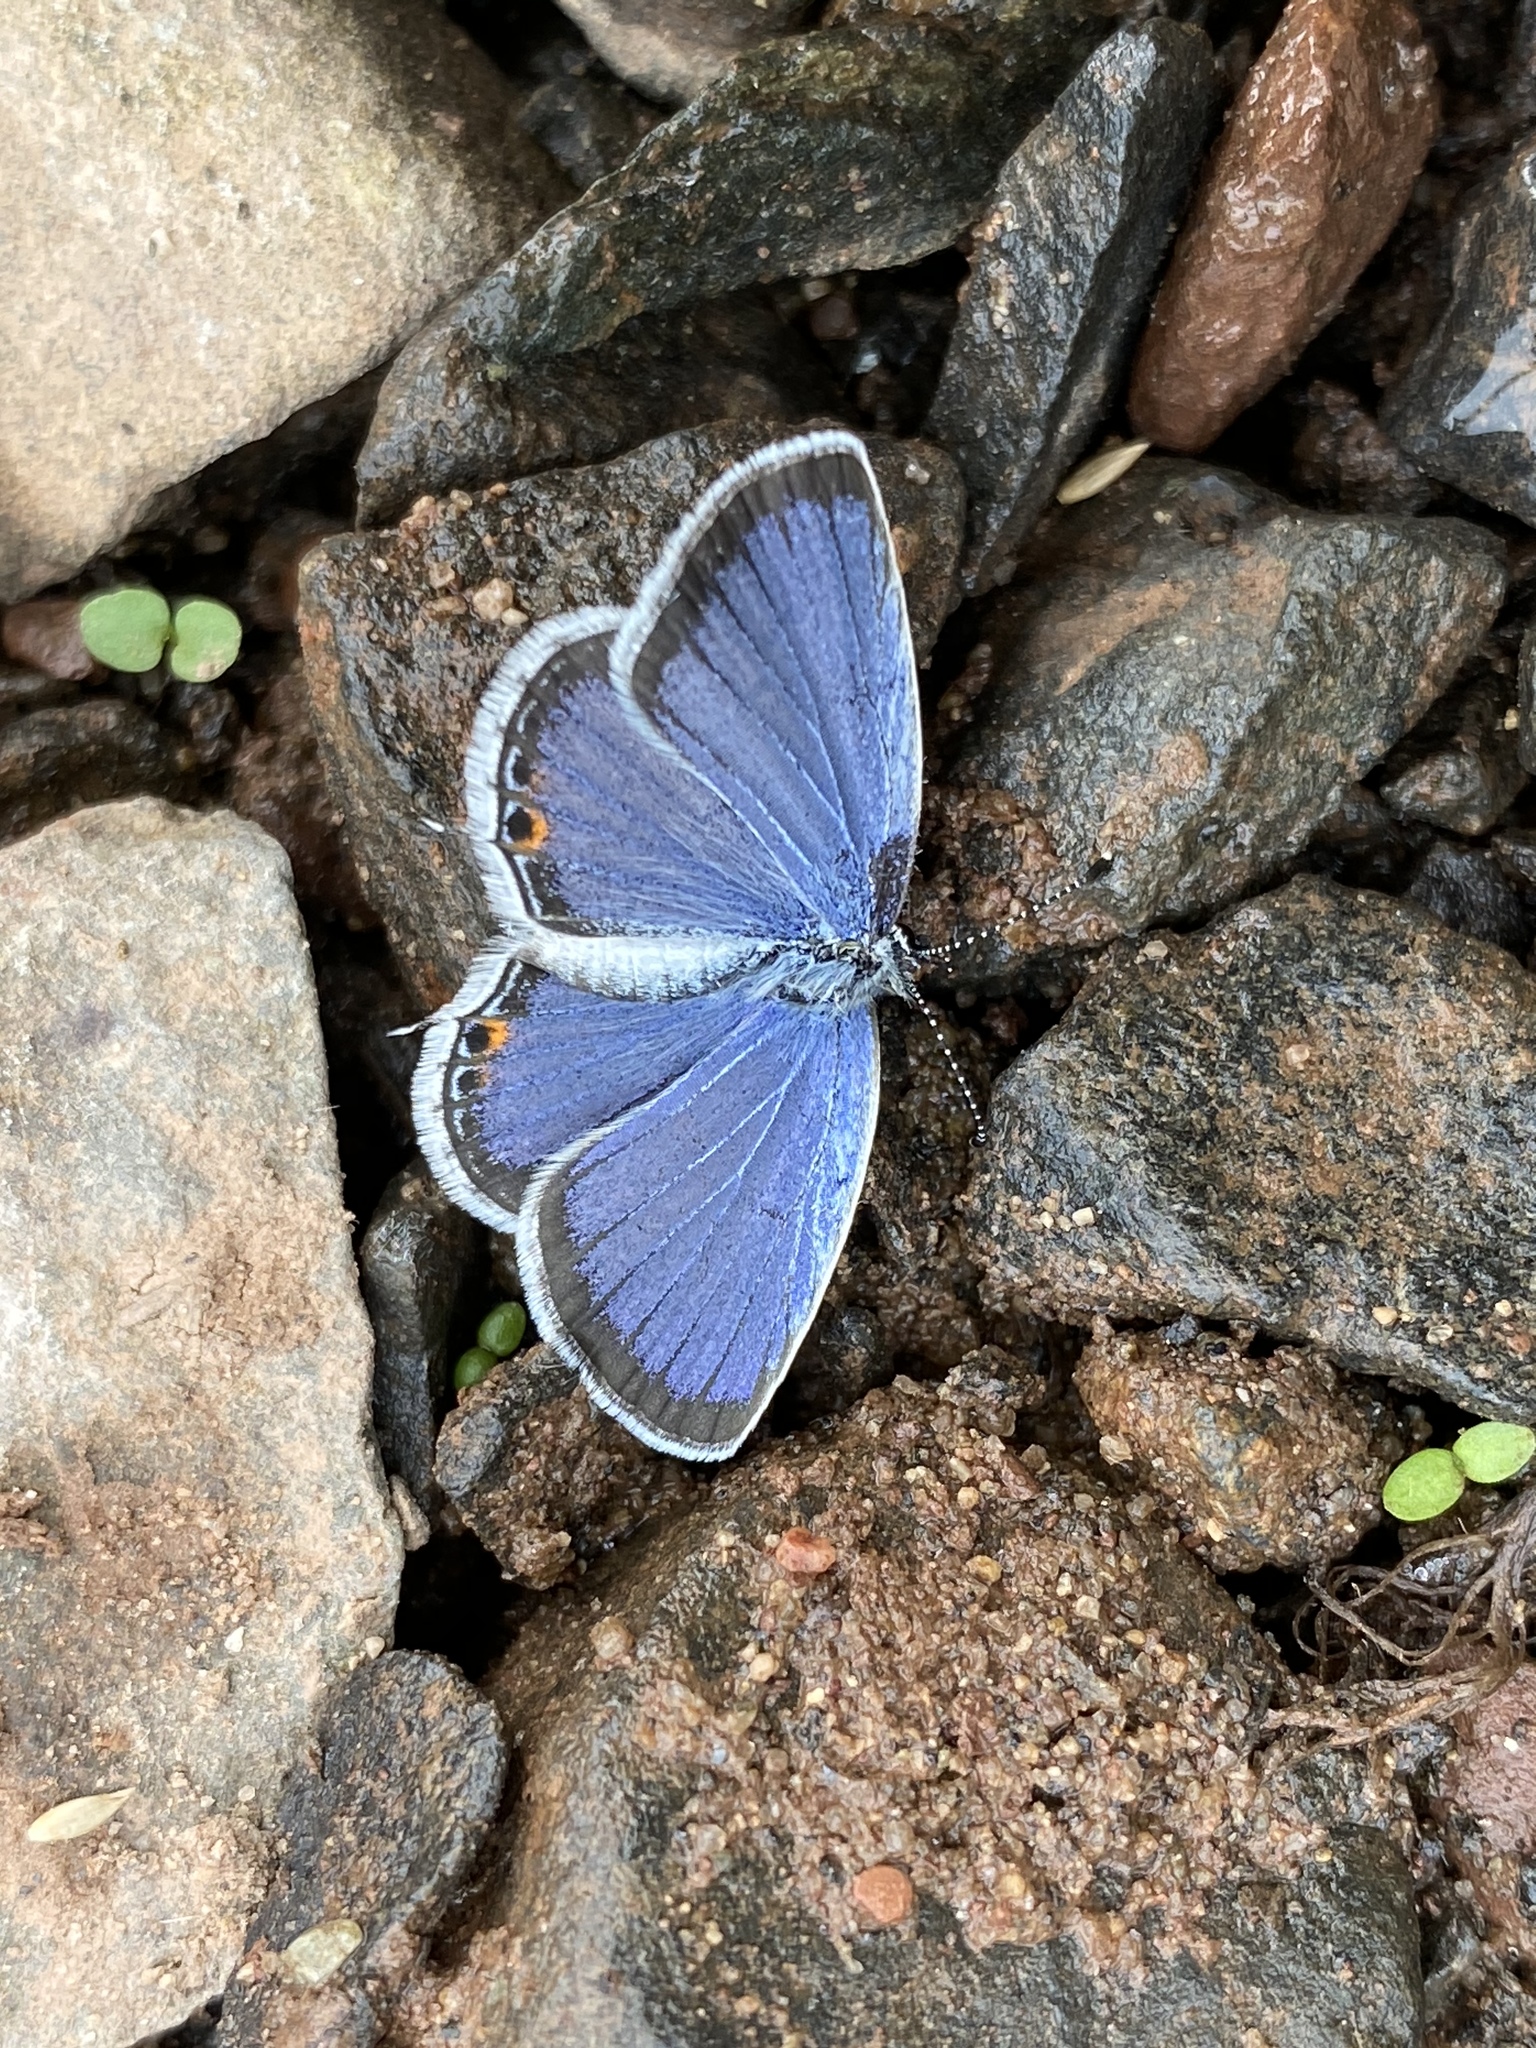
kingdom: Animalia
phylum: Arthropoda
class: Insecta
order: Lepidoptera
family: Lycaenidae
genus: Elkalyce
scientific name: Elkalyce comyntas
